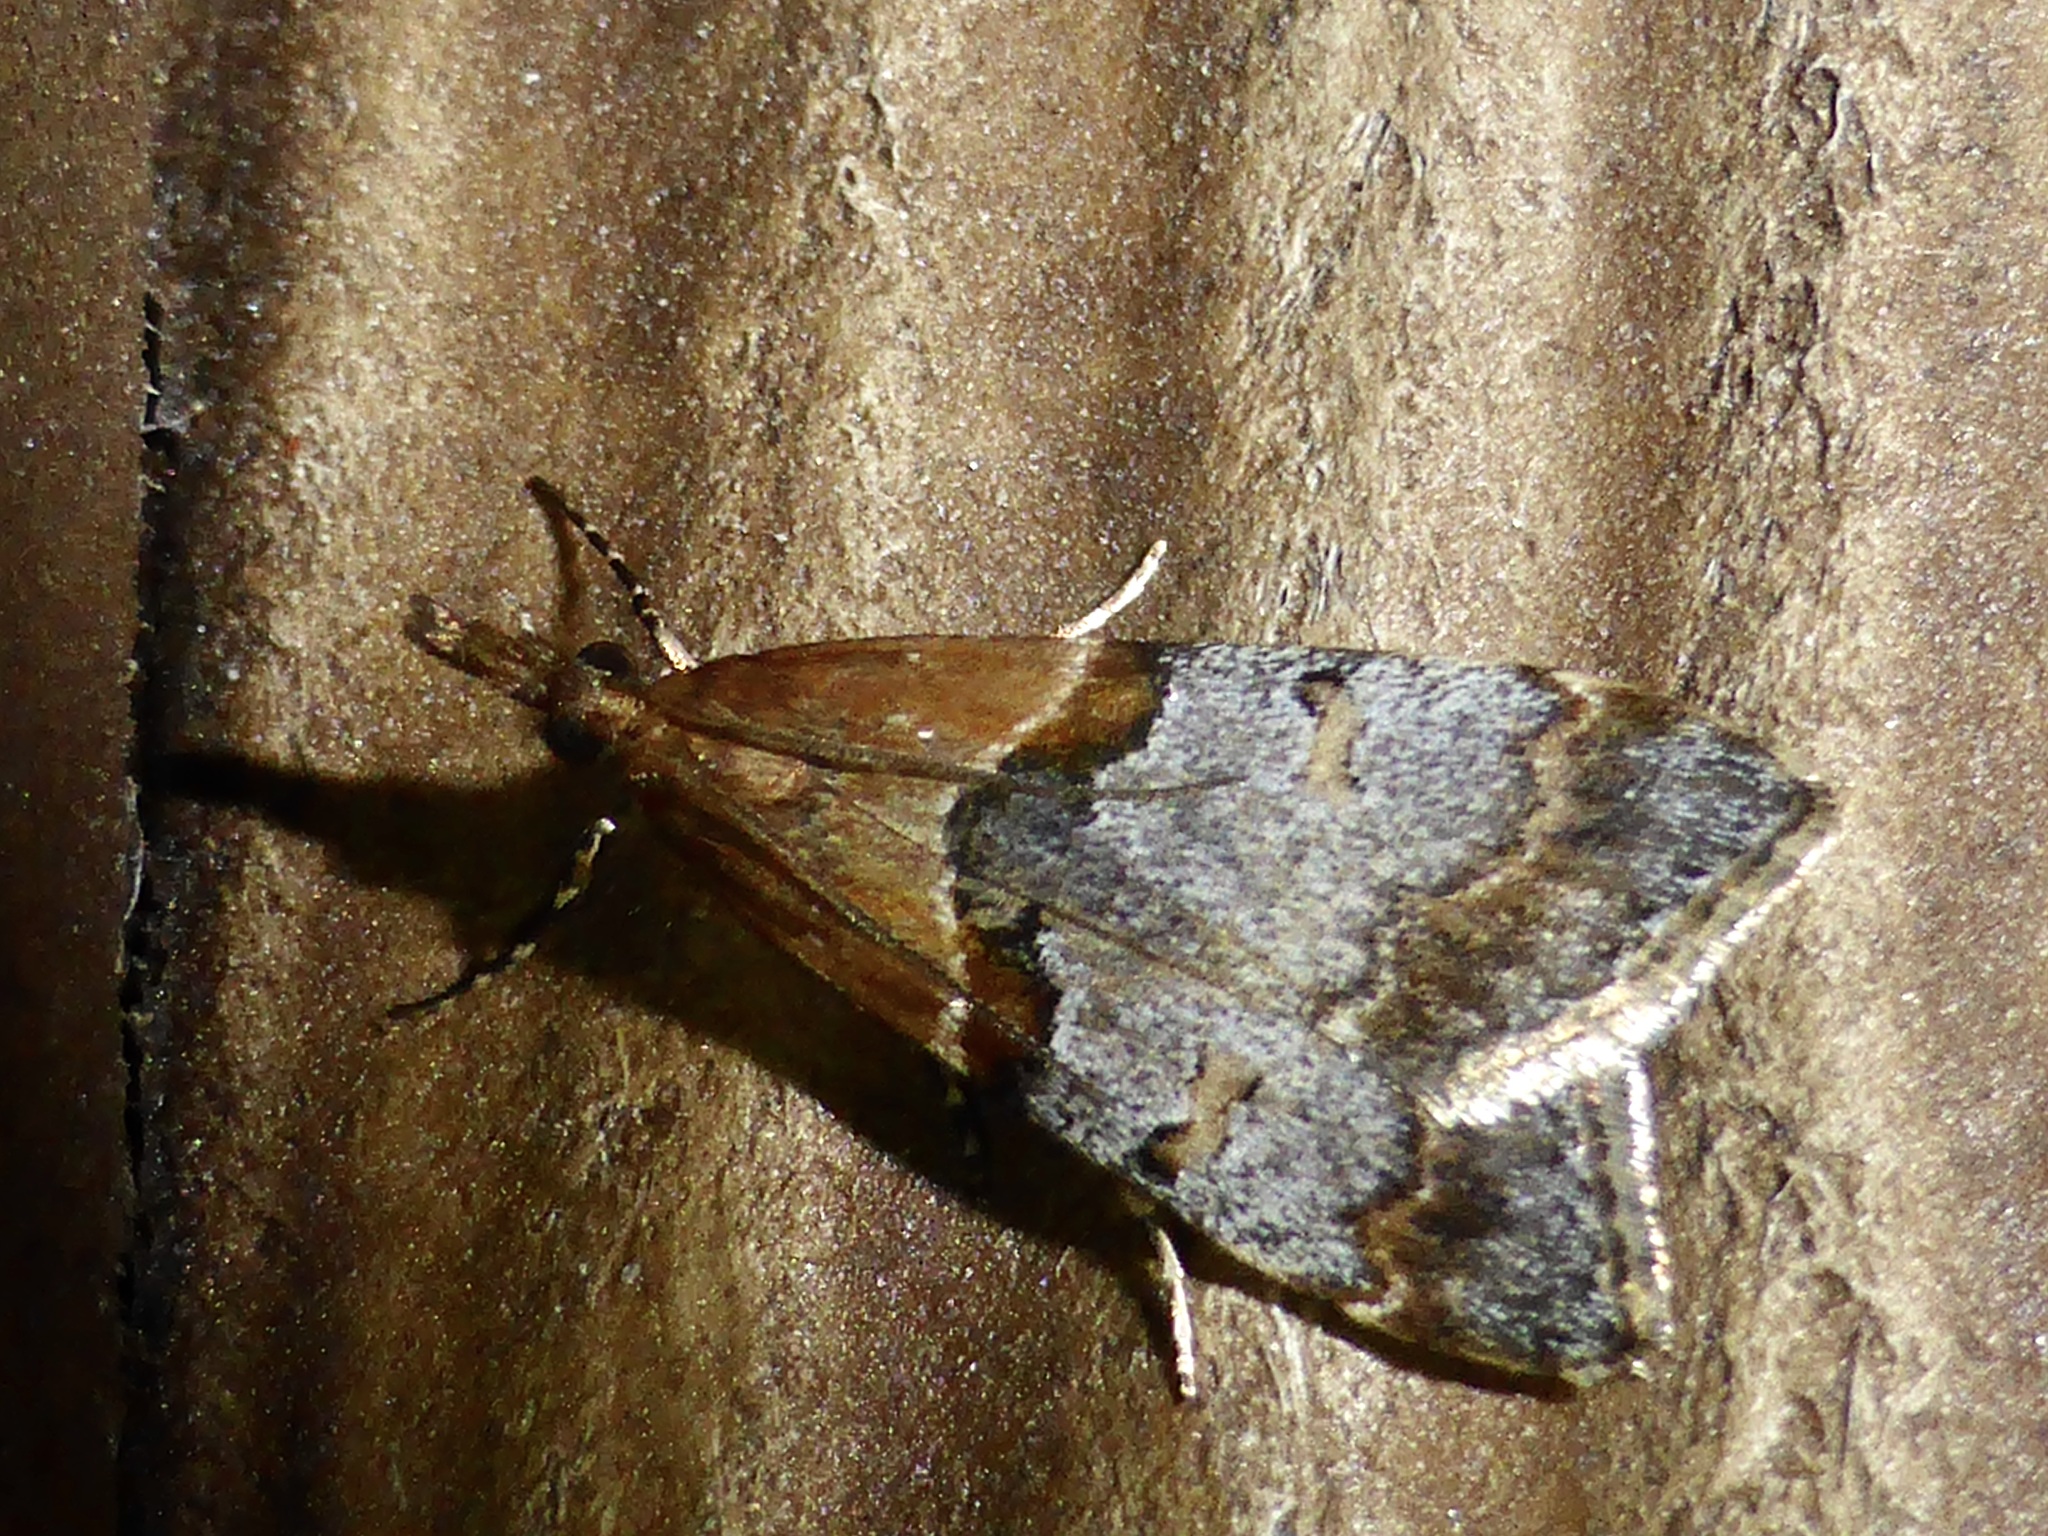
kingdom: Animalia
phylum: Arthropoda
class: Insecta
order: Lepidoptera
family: Crambidae
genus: Antiscopa
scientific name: Antiscopa epicomia
